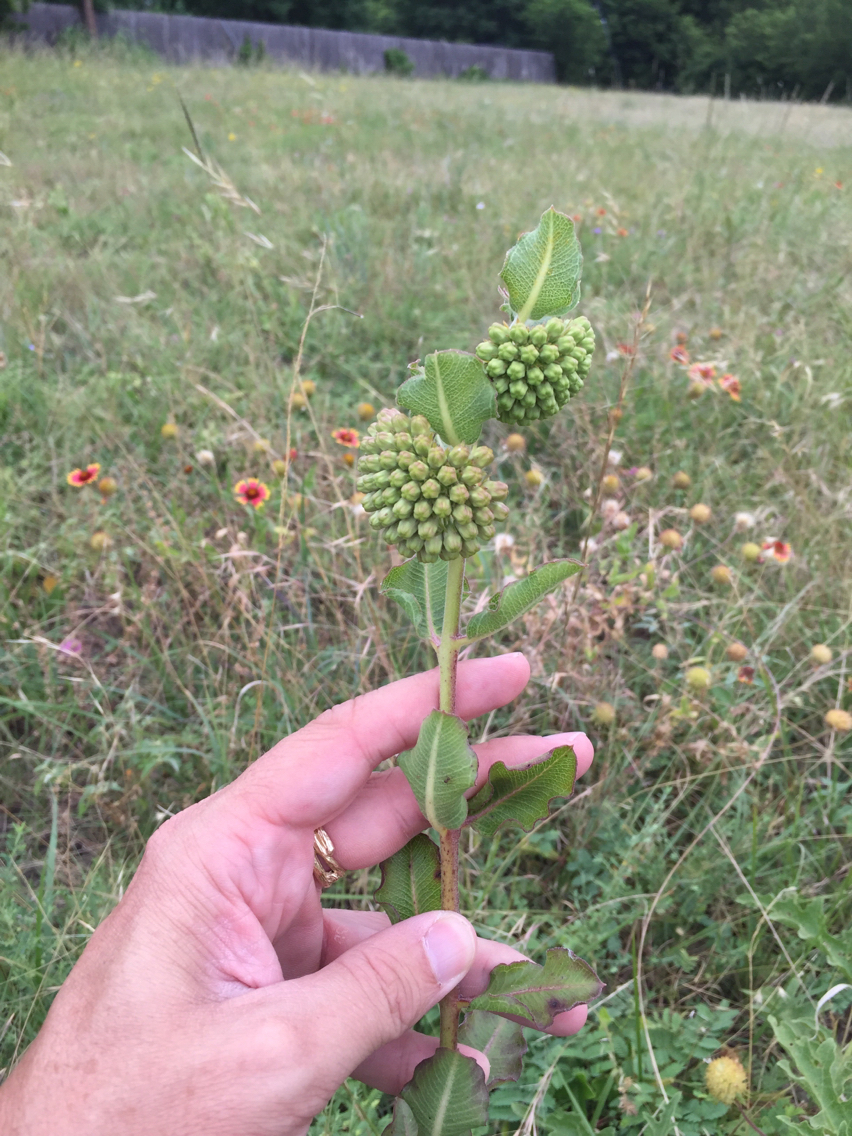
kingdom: Plantae
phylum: Tracheophyta
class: Magnoliopsida
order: Gentianales
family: Apocynaceae
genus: Asclepias
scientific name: Asclepias viridiflora
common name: Green comet milkweed
